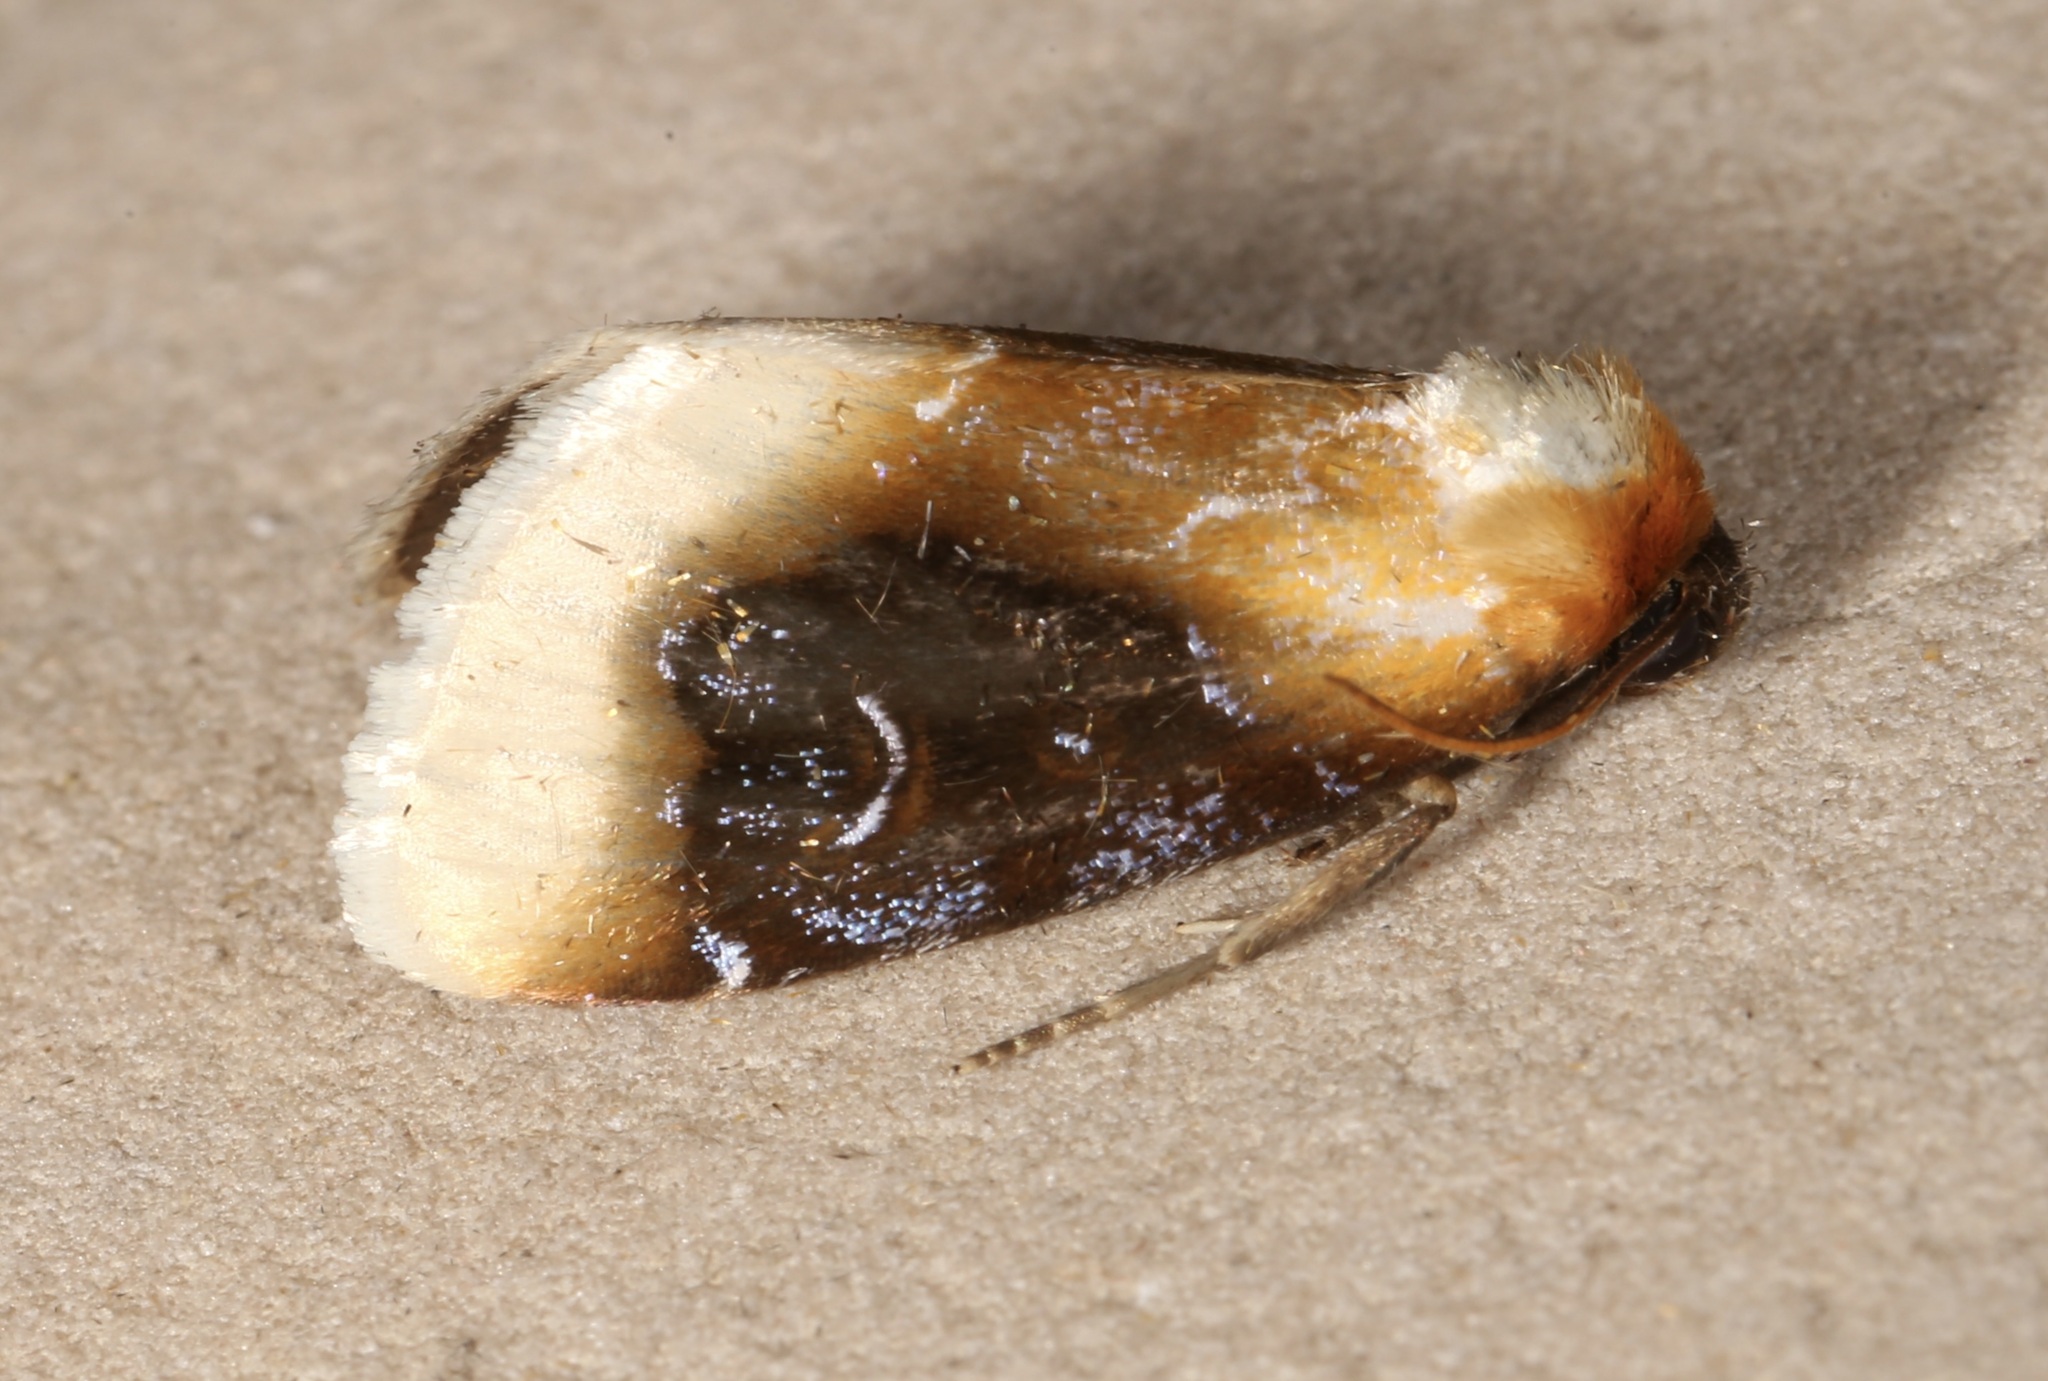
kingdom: Animalia
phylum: Arthropoda
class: Insecta
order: Lepidoptera
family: Noctuidae
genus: Chrysoecia
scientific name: Chrysoecia scira
